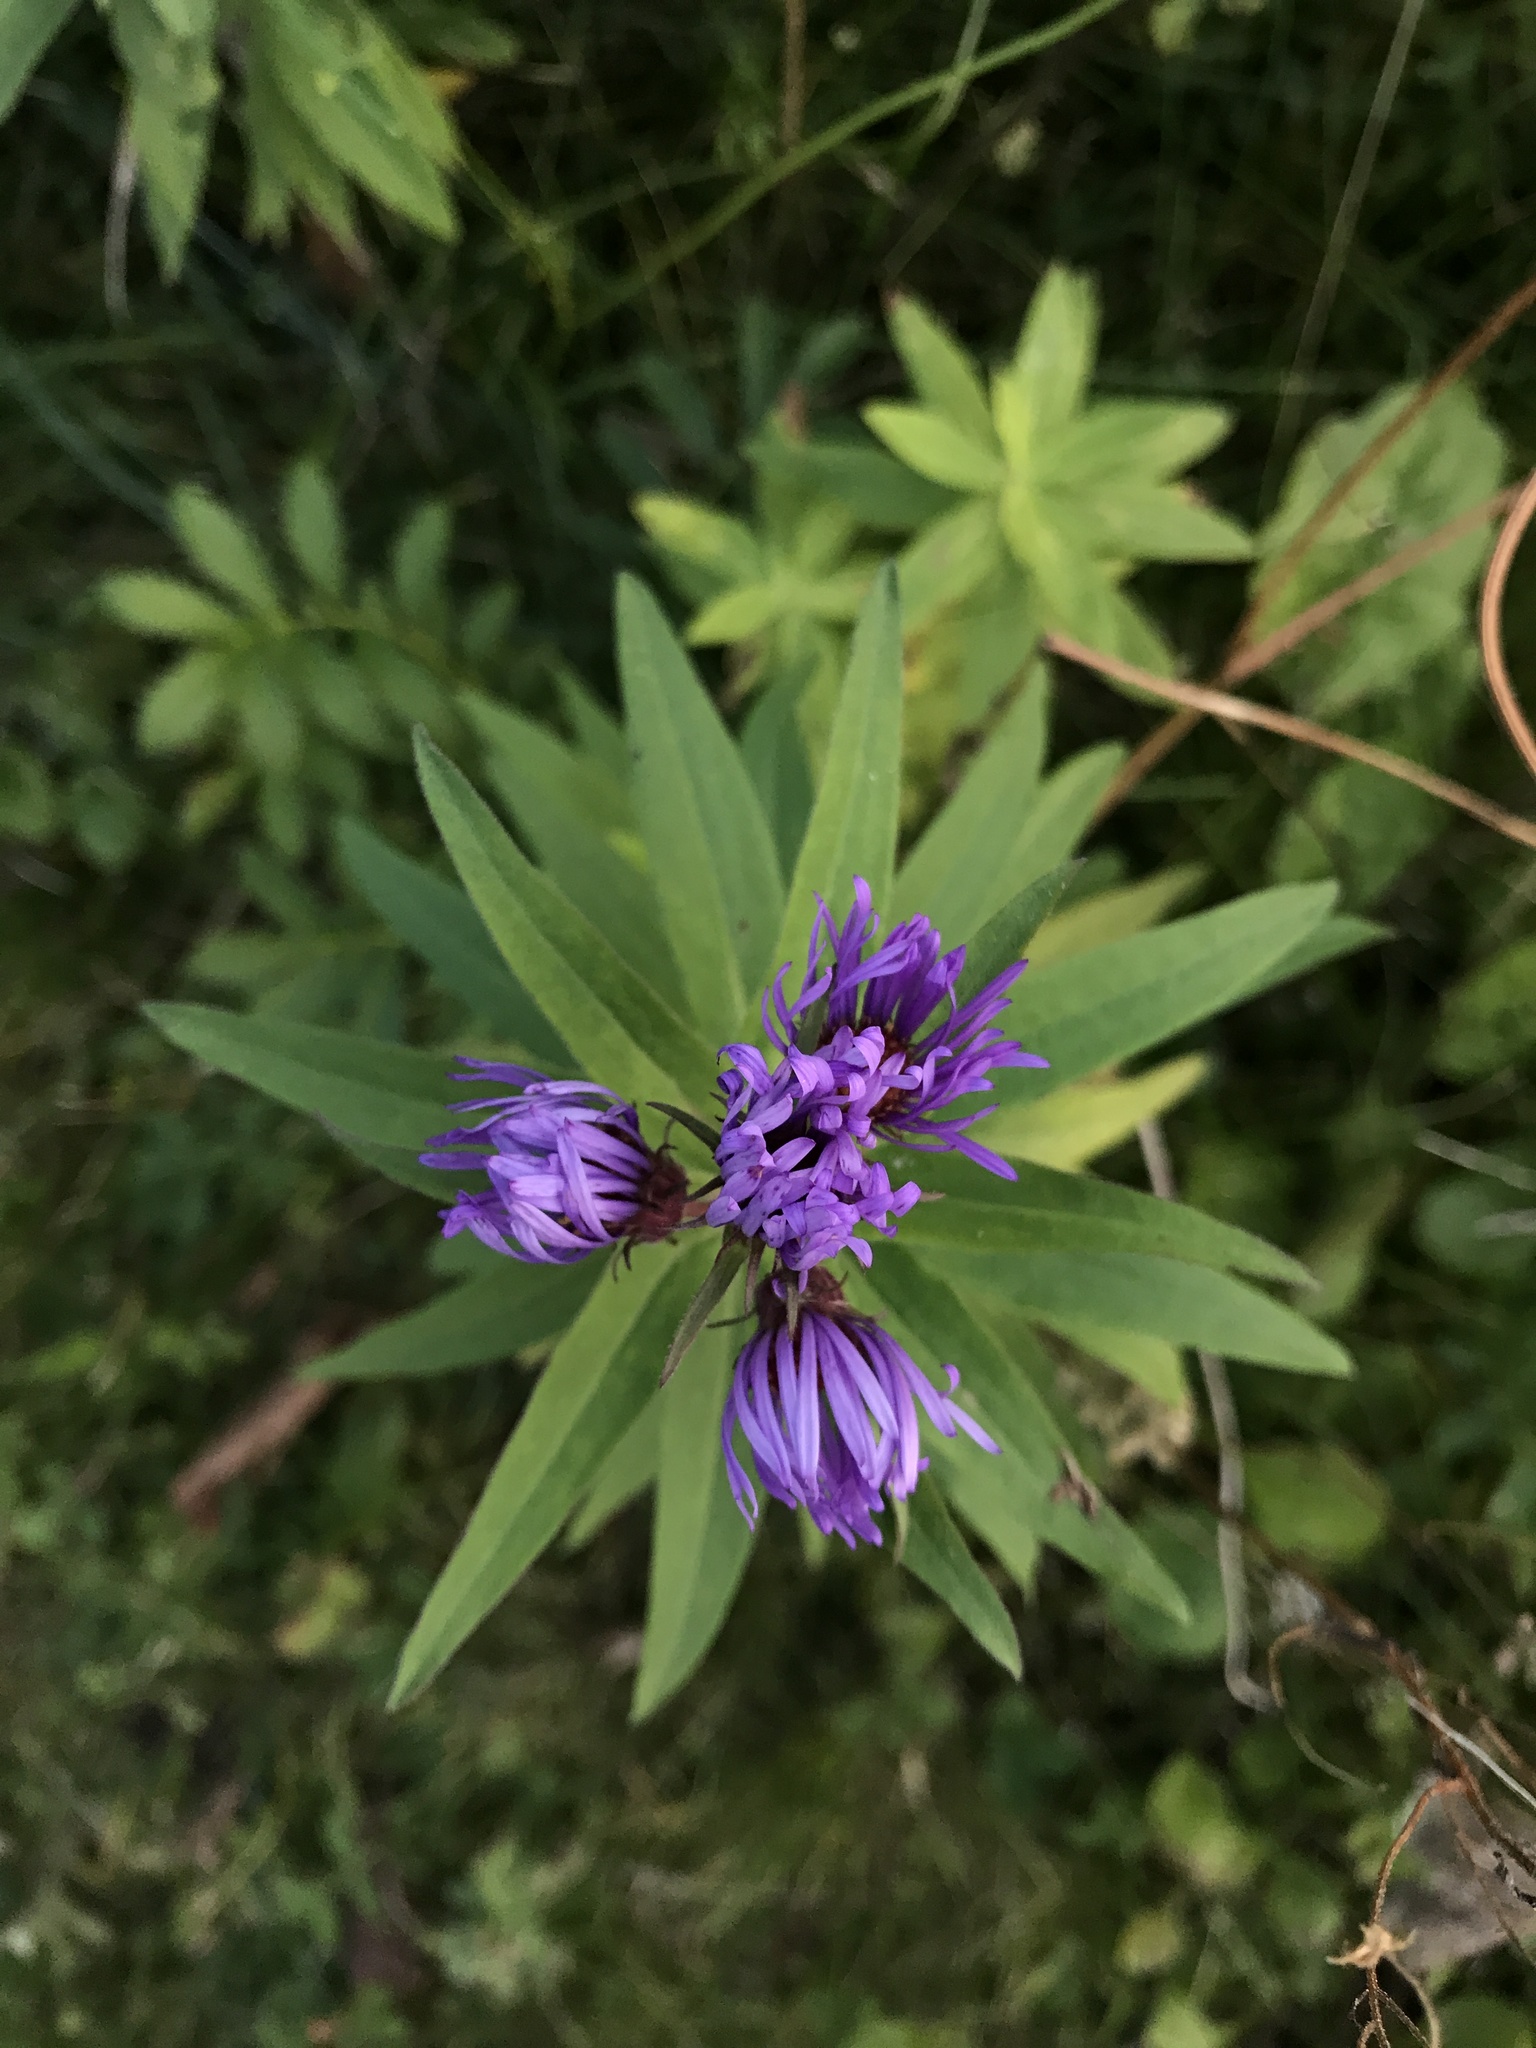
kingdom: Plantae
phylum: Tracheophyta
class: Magnoliopsida
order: Asterales
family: Asteraceae
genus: Symphyotrichum
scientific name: Symphyotrichum novae-angliae
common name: Michaelmas daisy
